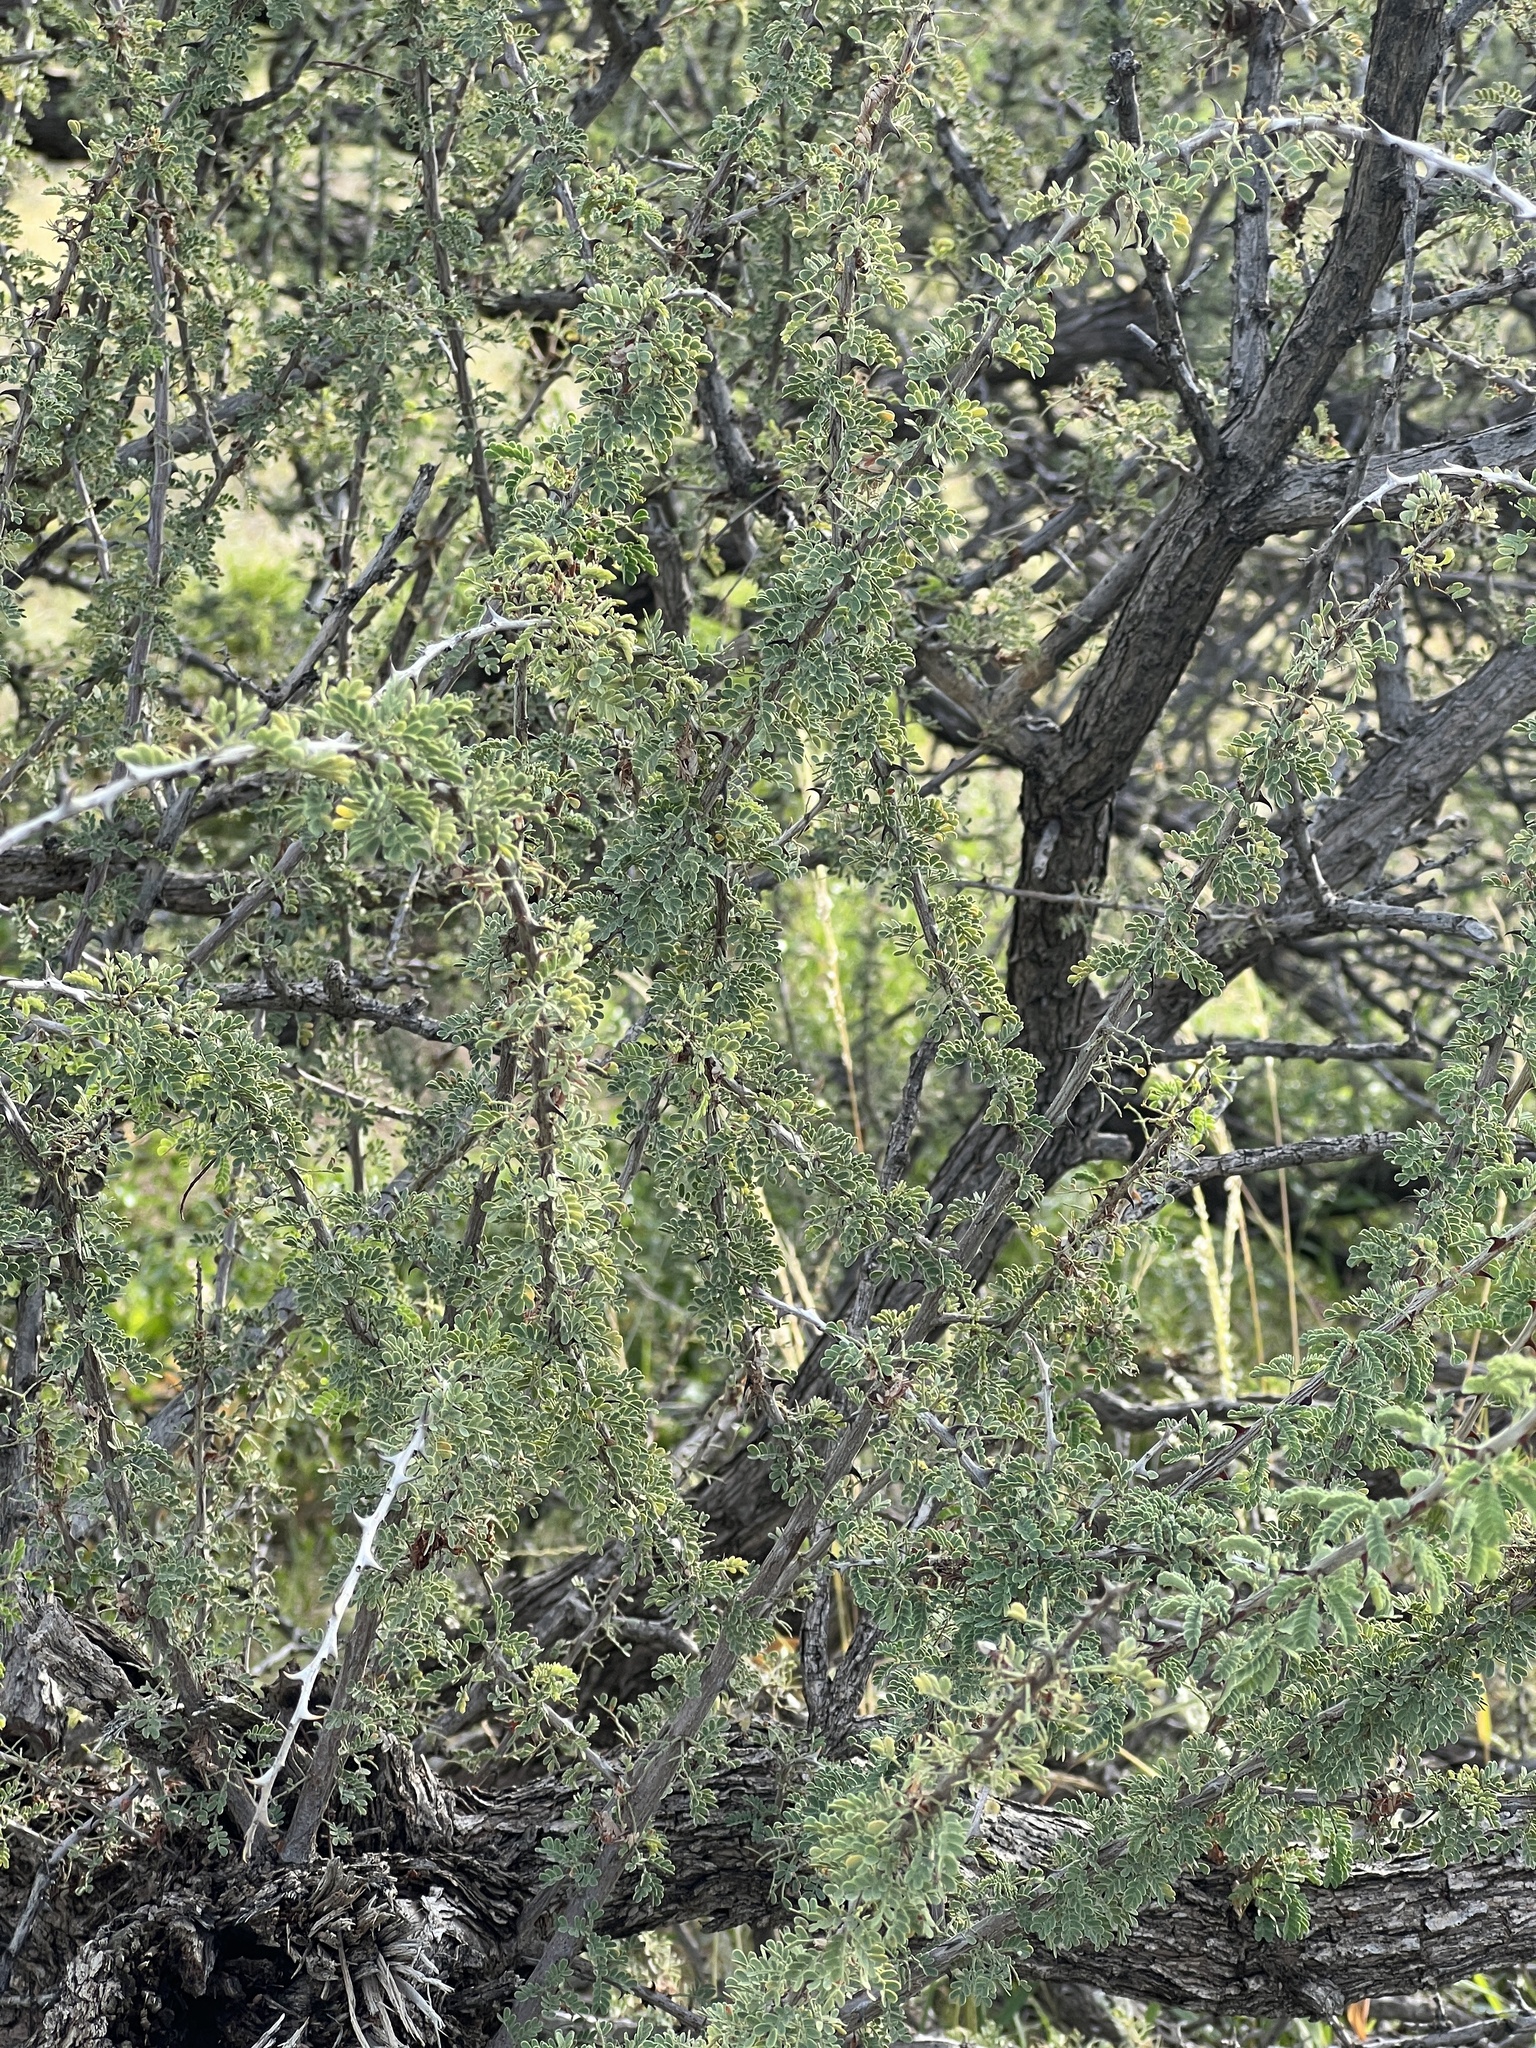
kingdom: Plantae
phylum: Tracheophyta
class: Magnoliopsida
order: Fabales
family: Fabaceae
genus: Senegalia
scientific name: Senegalia greggii
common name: Texas-mimosa
